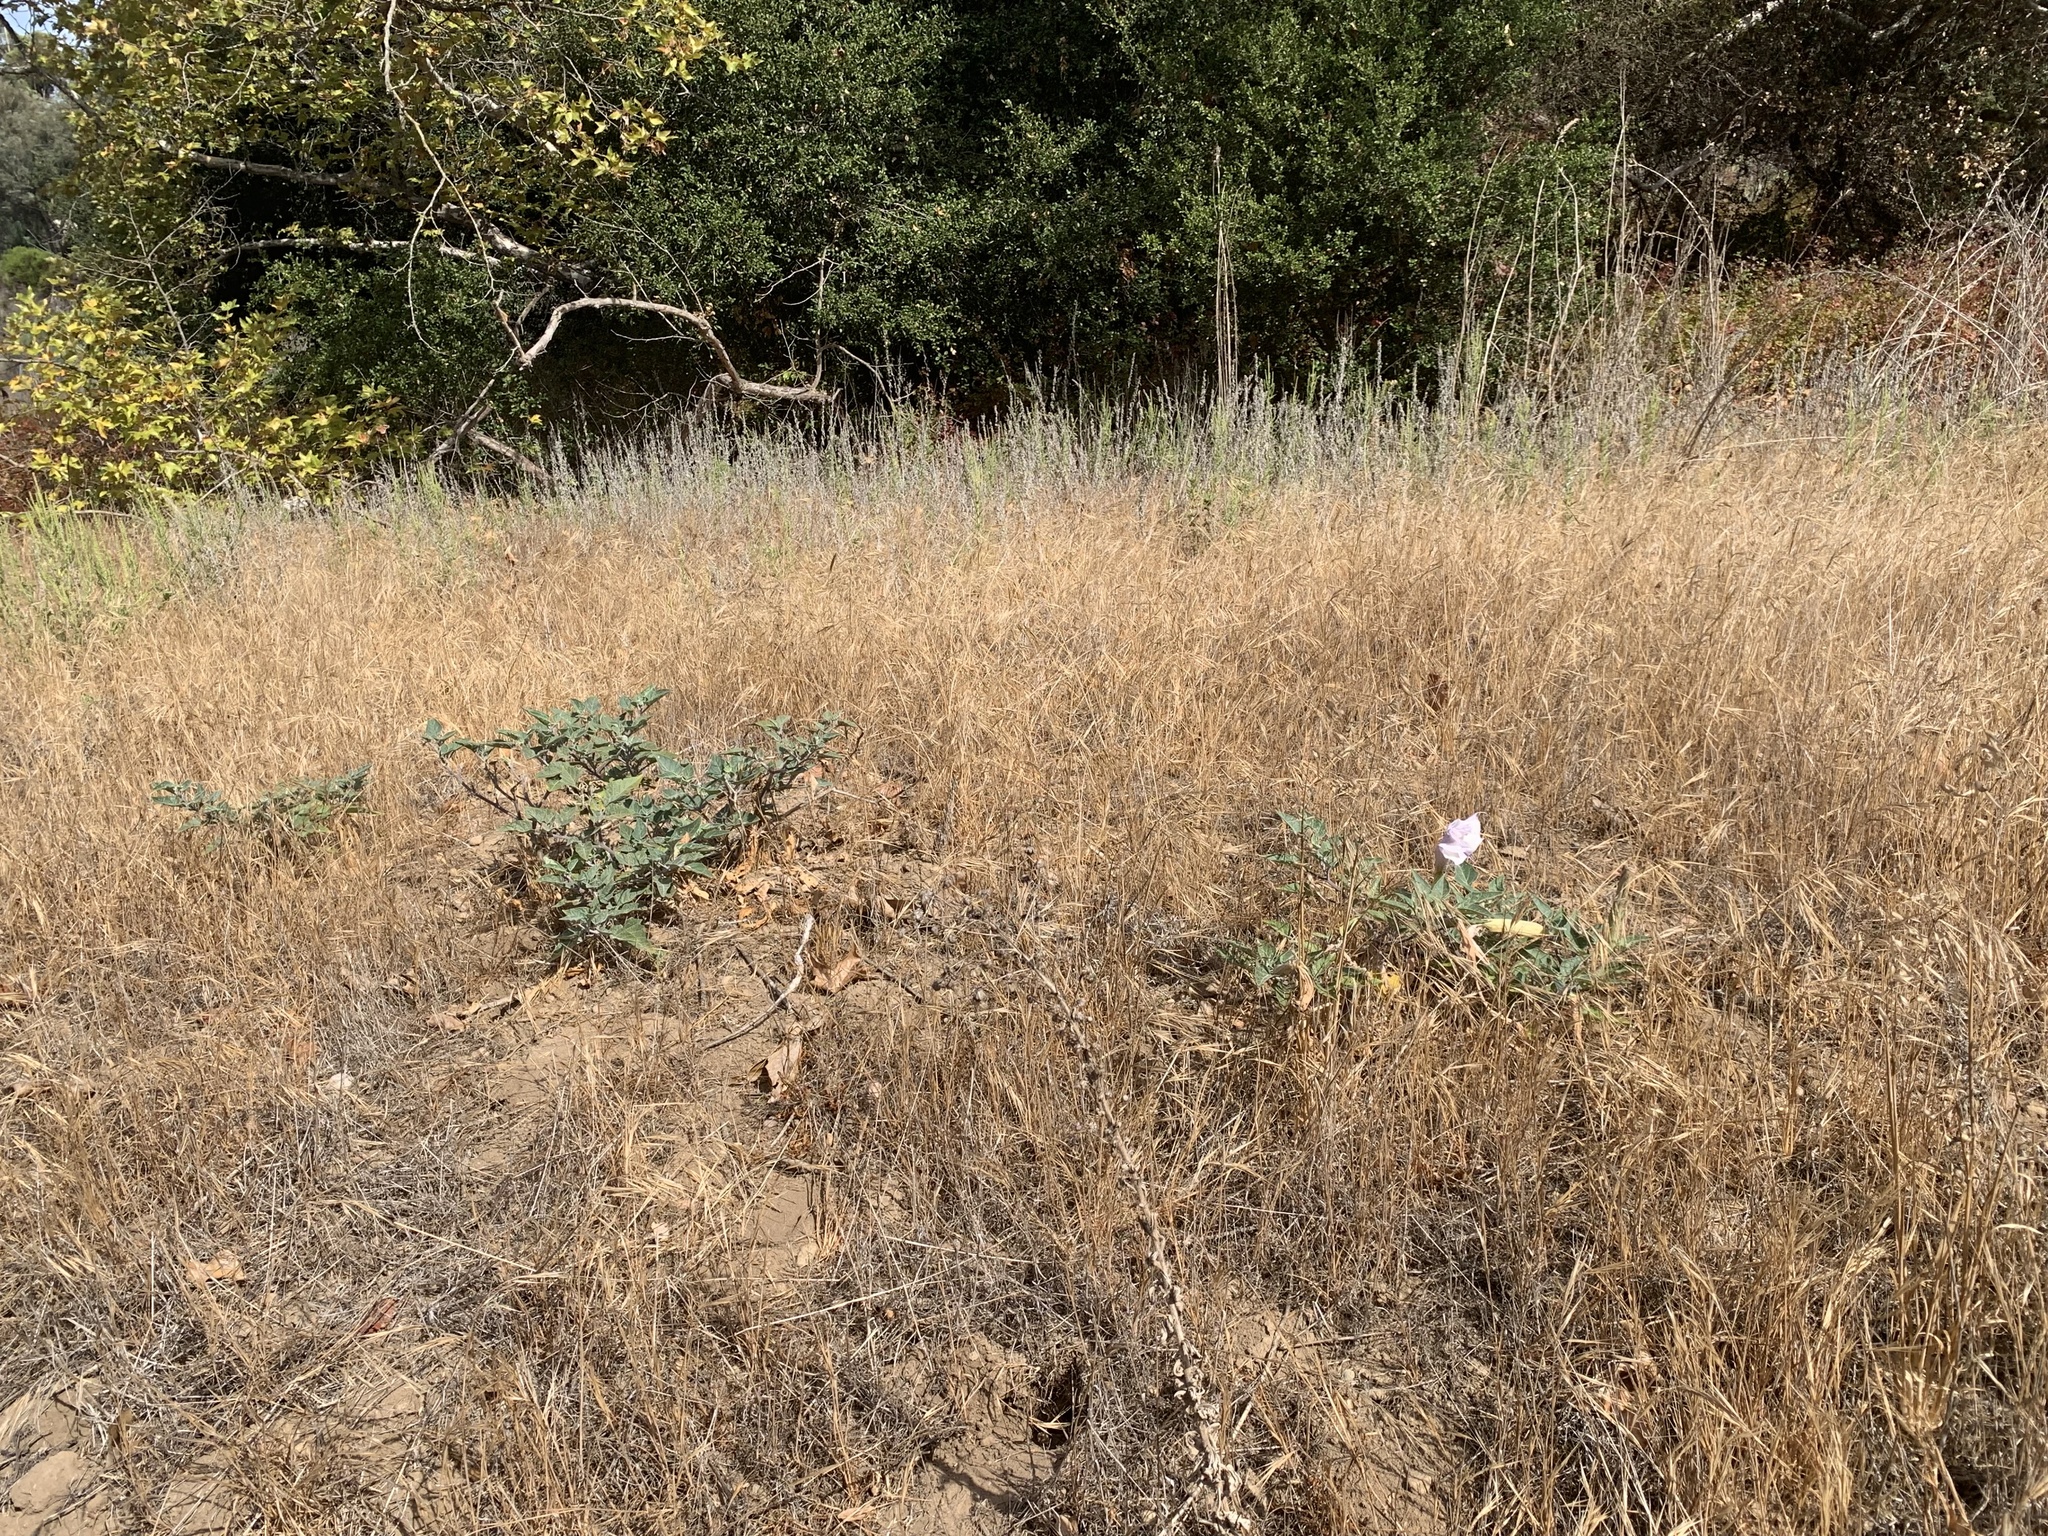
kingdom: Plantae
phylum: Tracheophyta
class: Magnoliopsida
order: Solanales
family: Solanaceae
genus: Datura
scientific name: Datura wrightii
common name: Sacred thorn-apple
